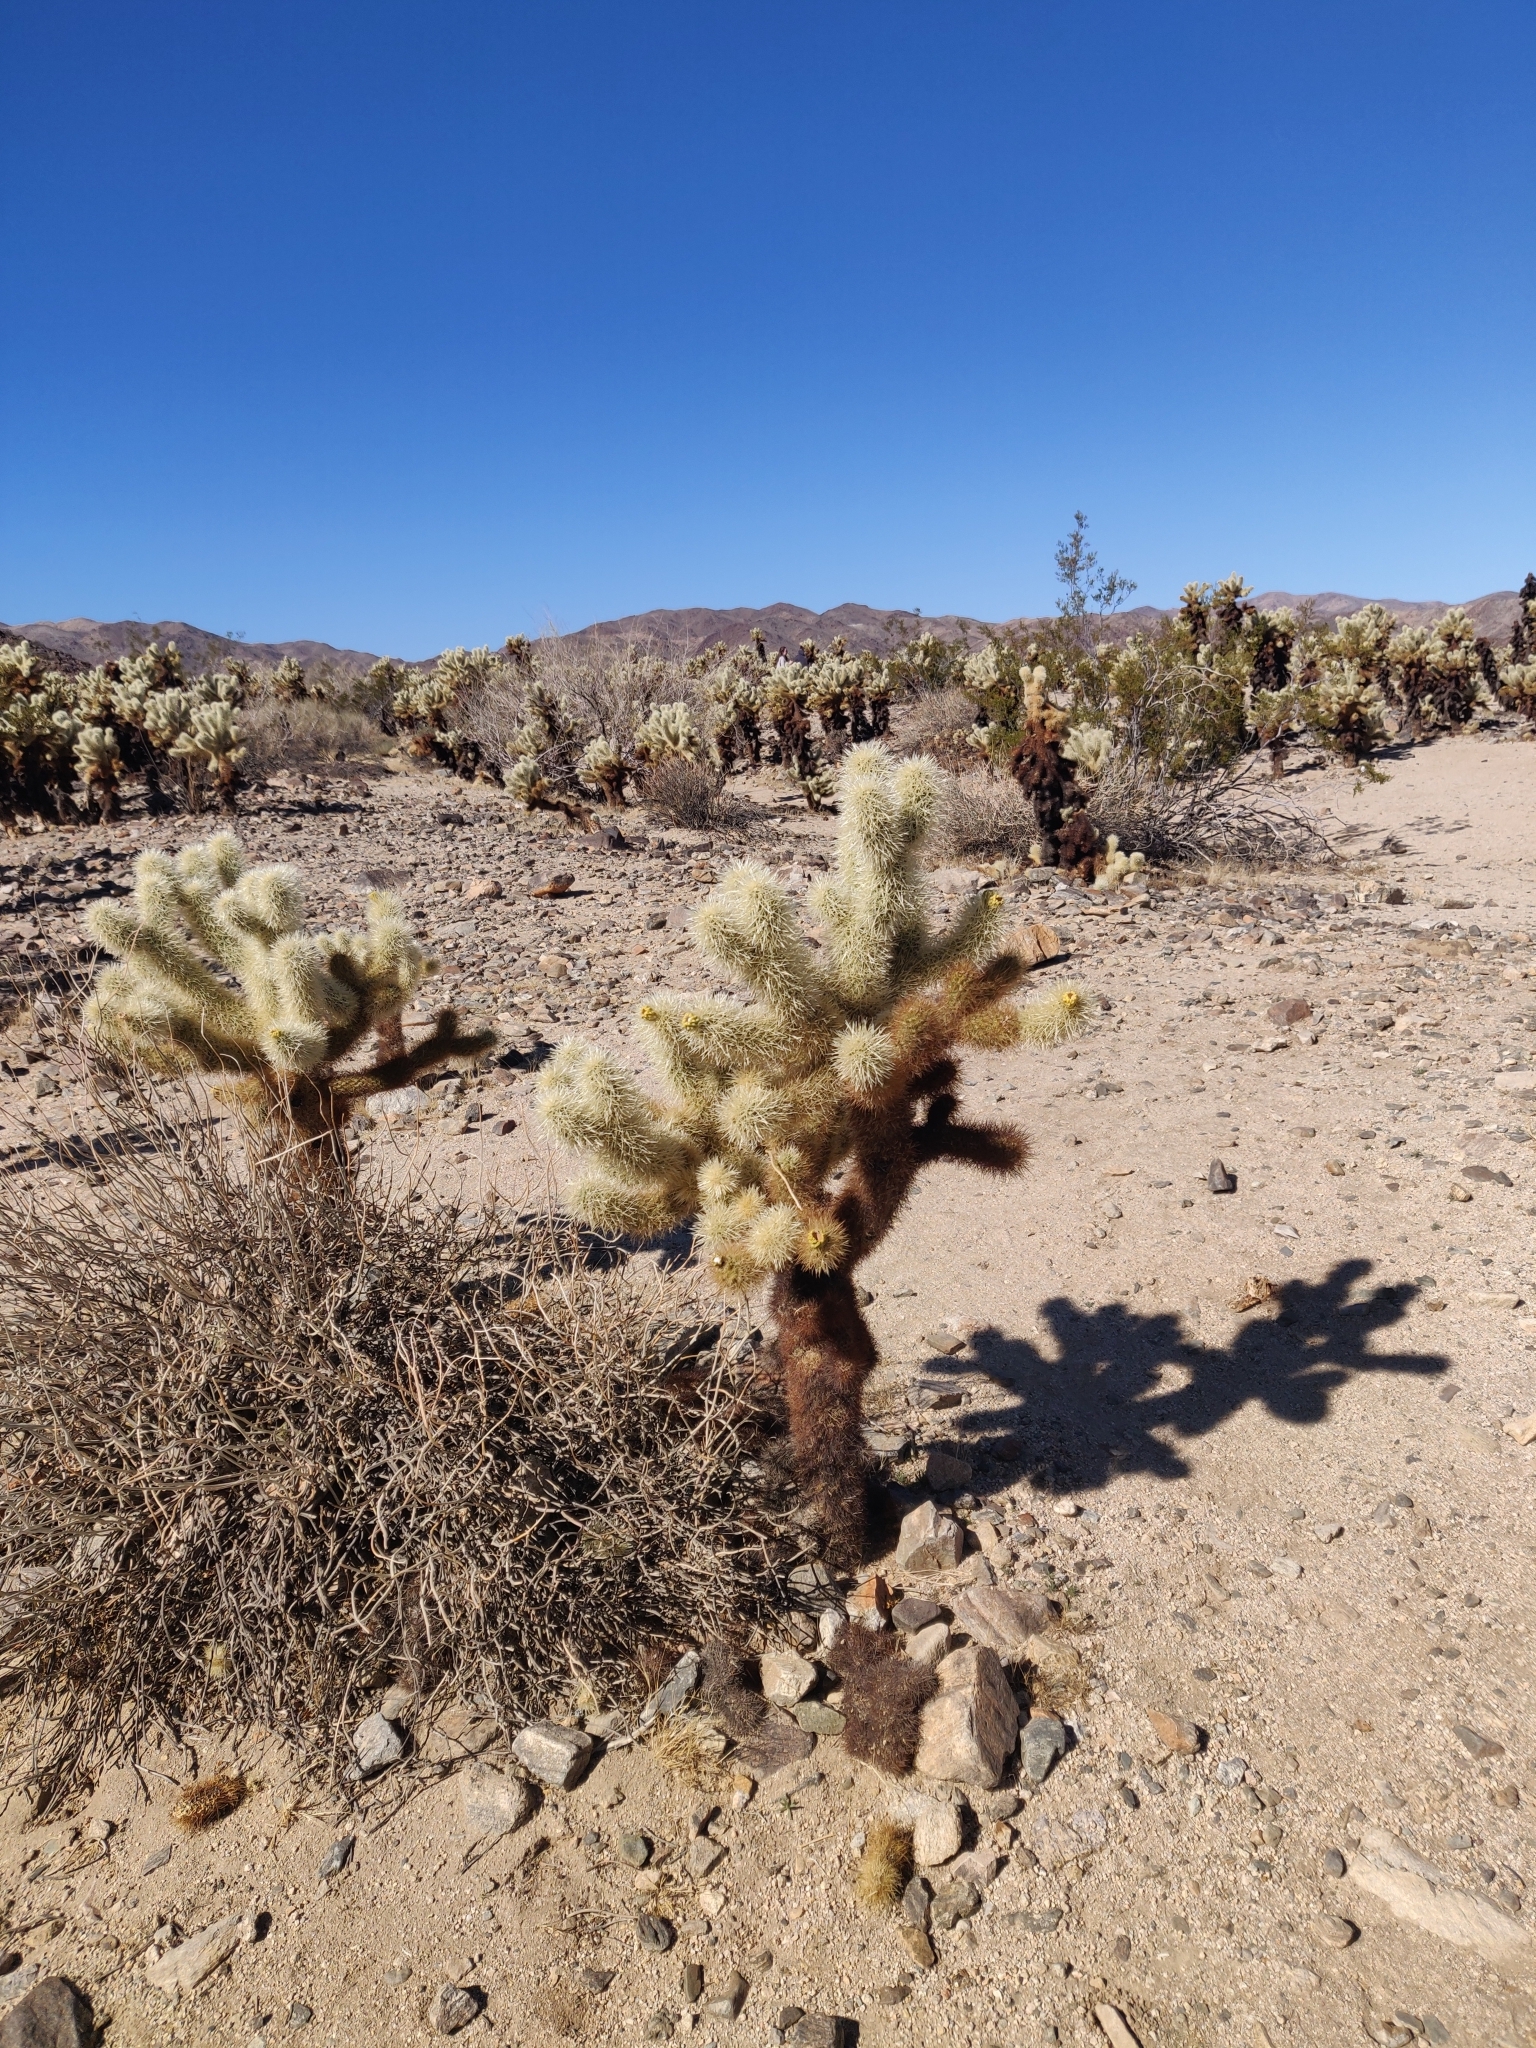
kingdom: Plantae
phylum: Tracheophyta
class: Magnoliopsida
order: Caryophyllales
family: Cactaceae
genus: Cylindropuntia
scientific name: Cylindropuntia fosbergii
